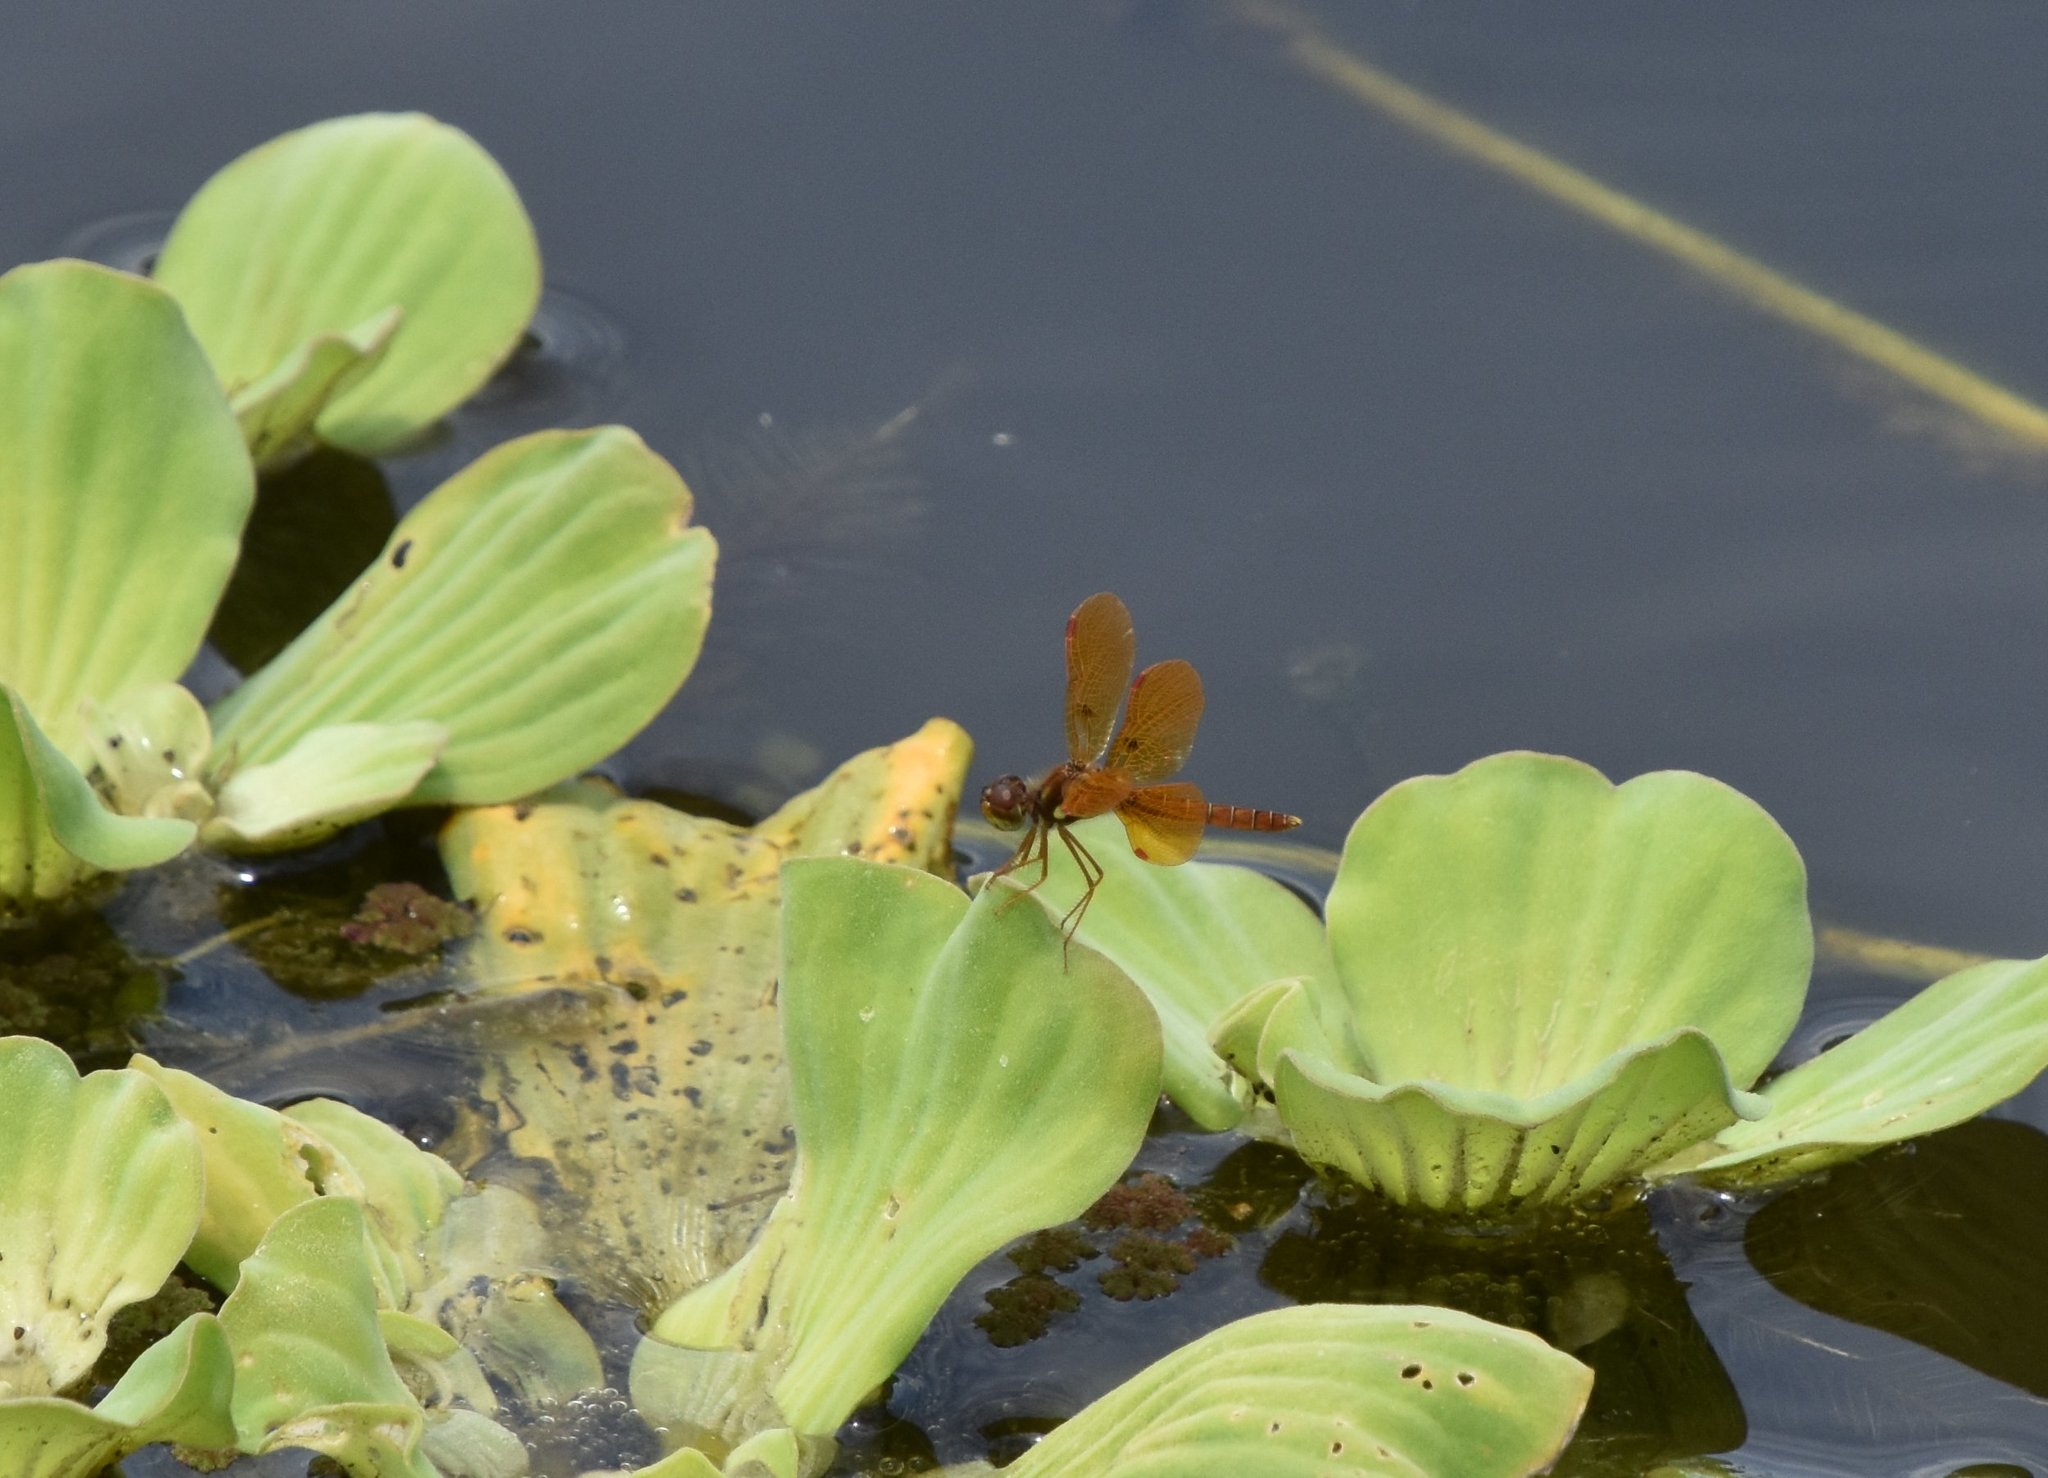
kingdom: Animalia
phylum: Arthropoda
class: Insecta
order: Odonata
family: Libellulidae
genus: Perithemis
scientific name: Perithemis tenera
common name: Eastern amberwing
